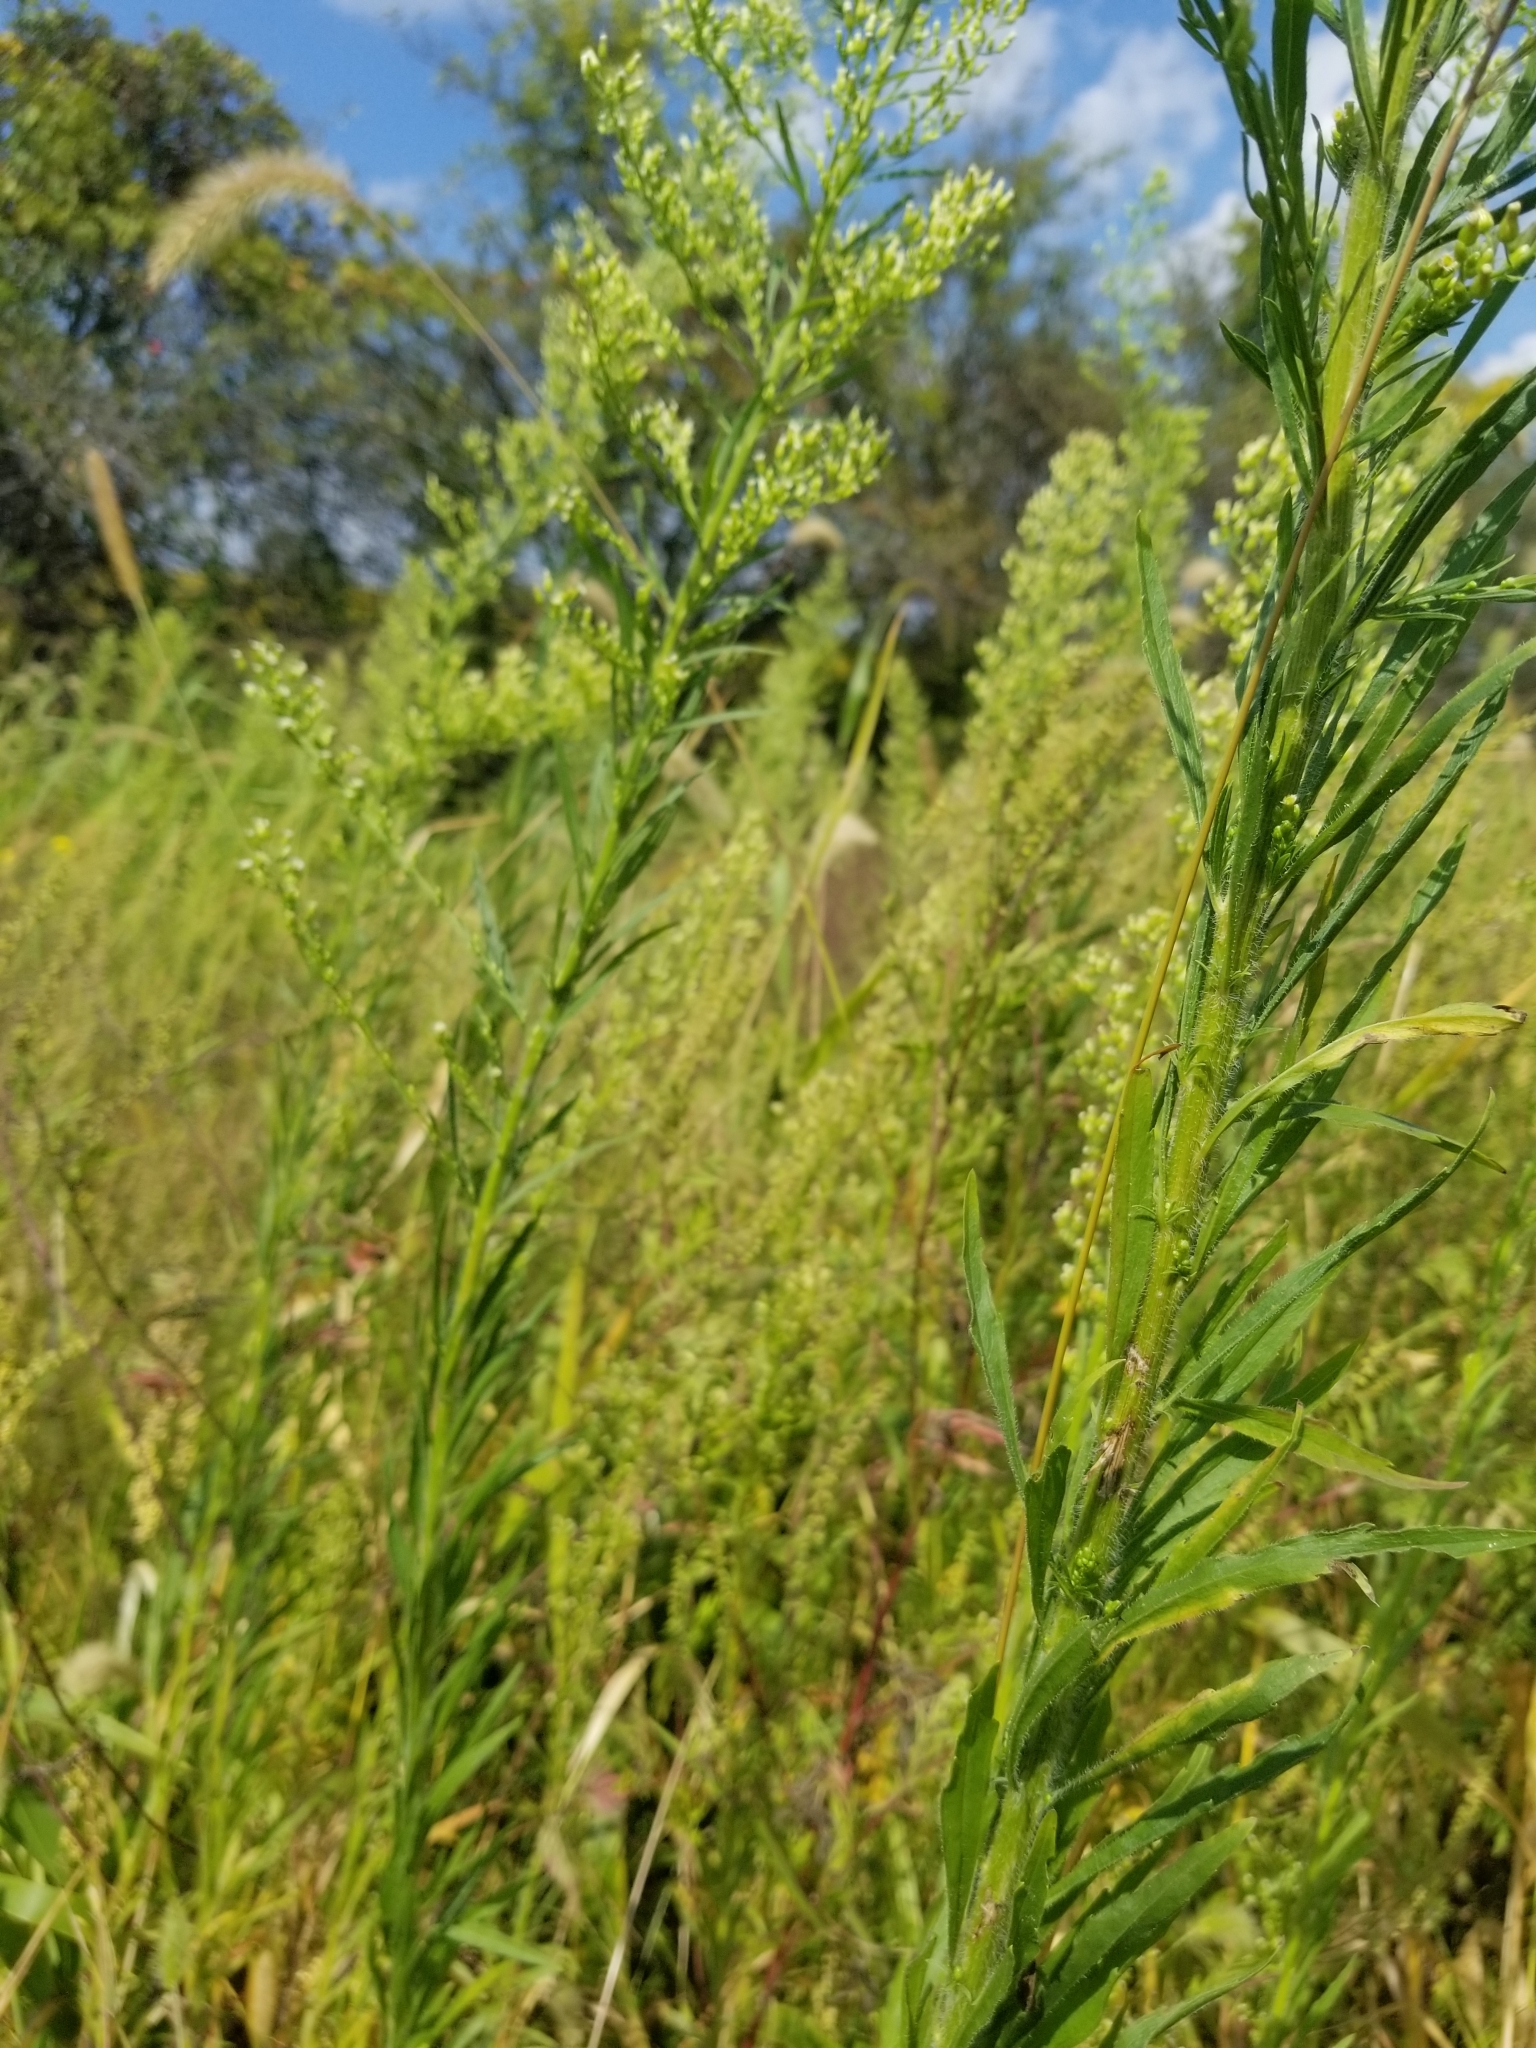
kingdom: Plantae
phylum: Tracheophyta
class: Magnoliopsida
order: Asterales
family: Asteraceae
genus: Erigeron
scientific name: Erigeron canadensis
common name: Canadian fleabane
